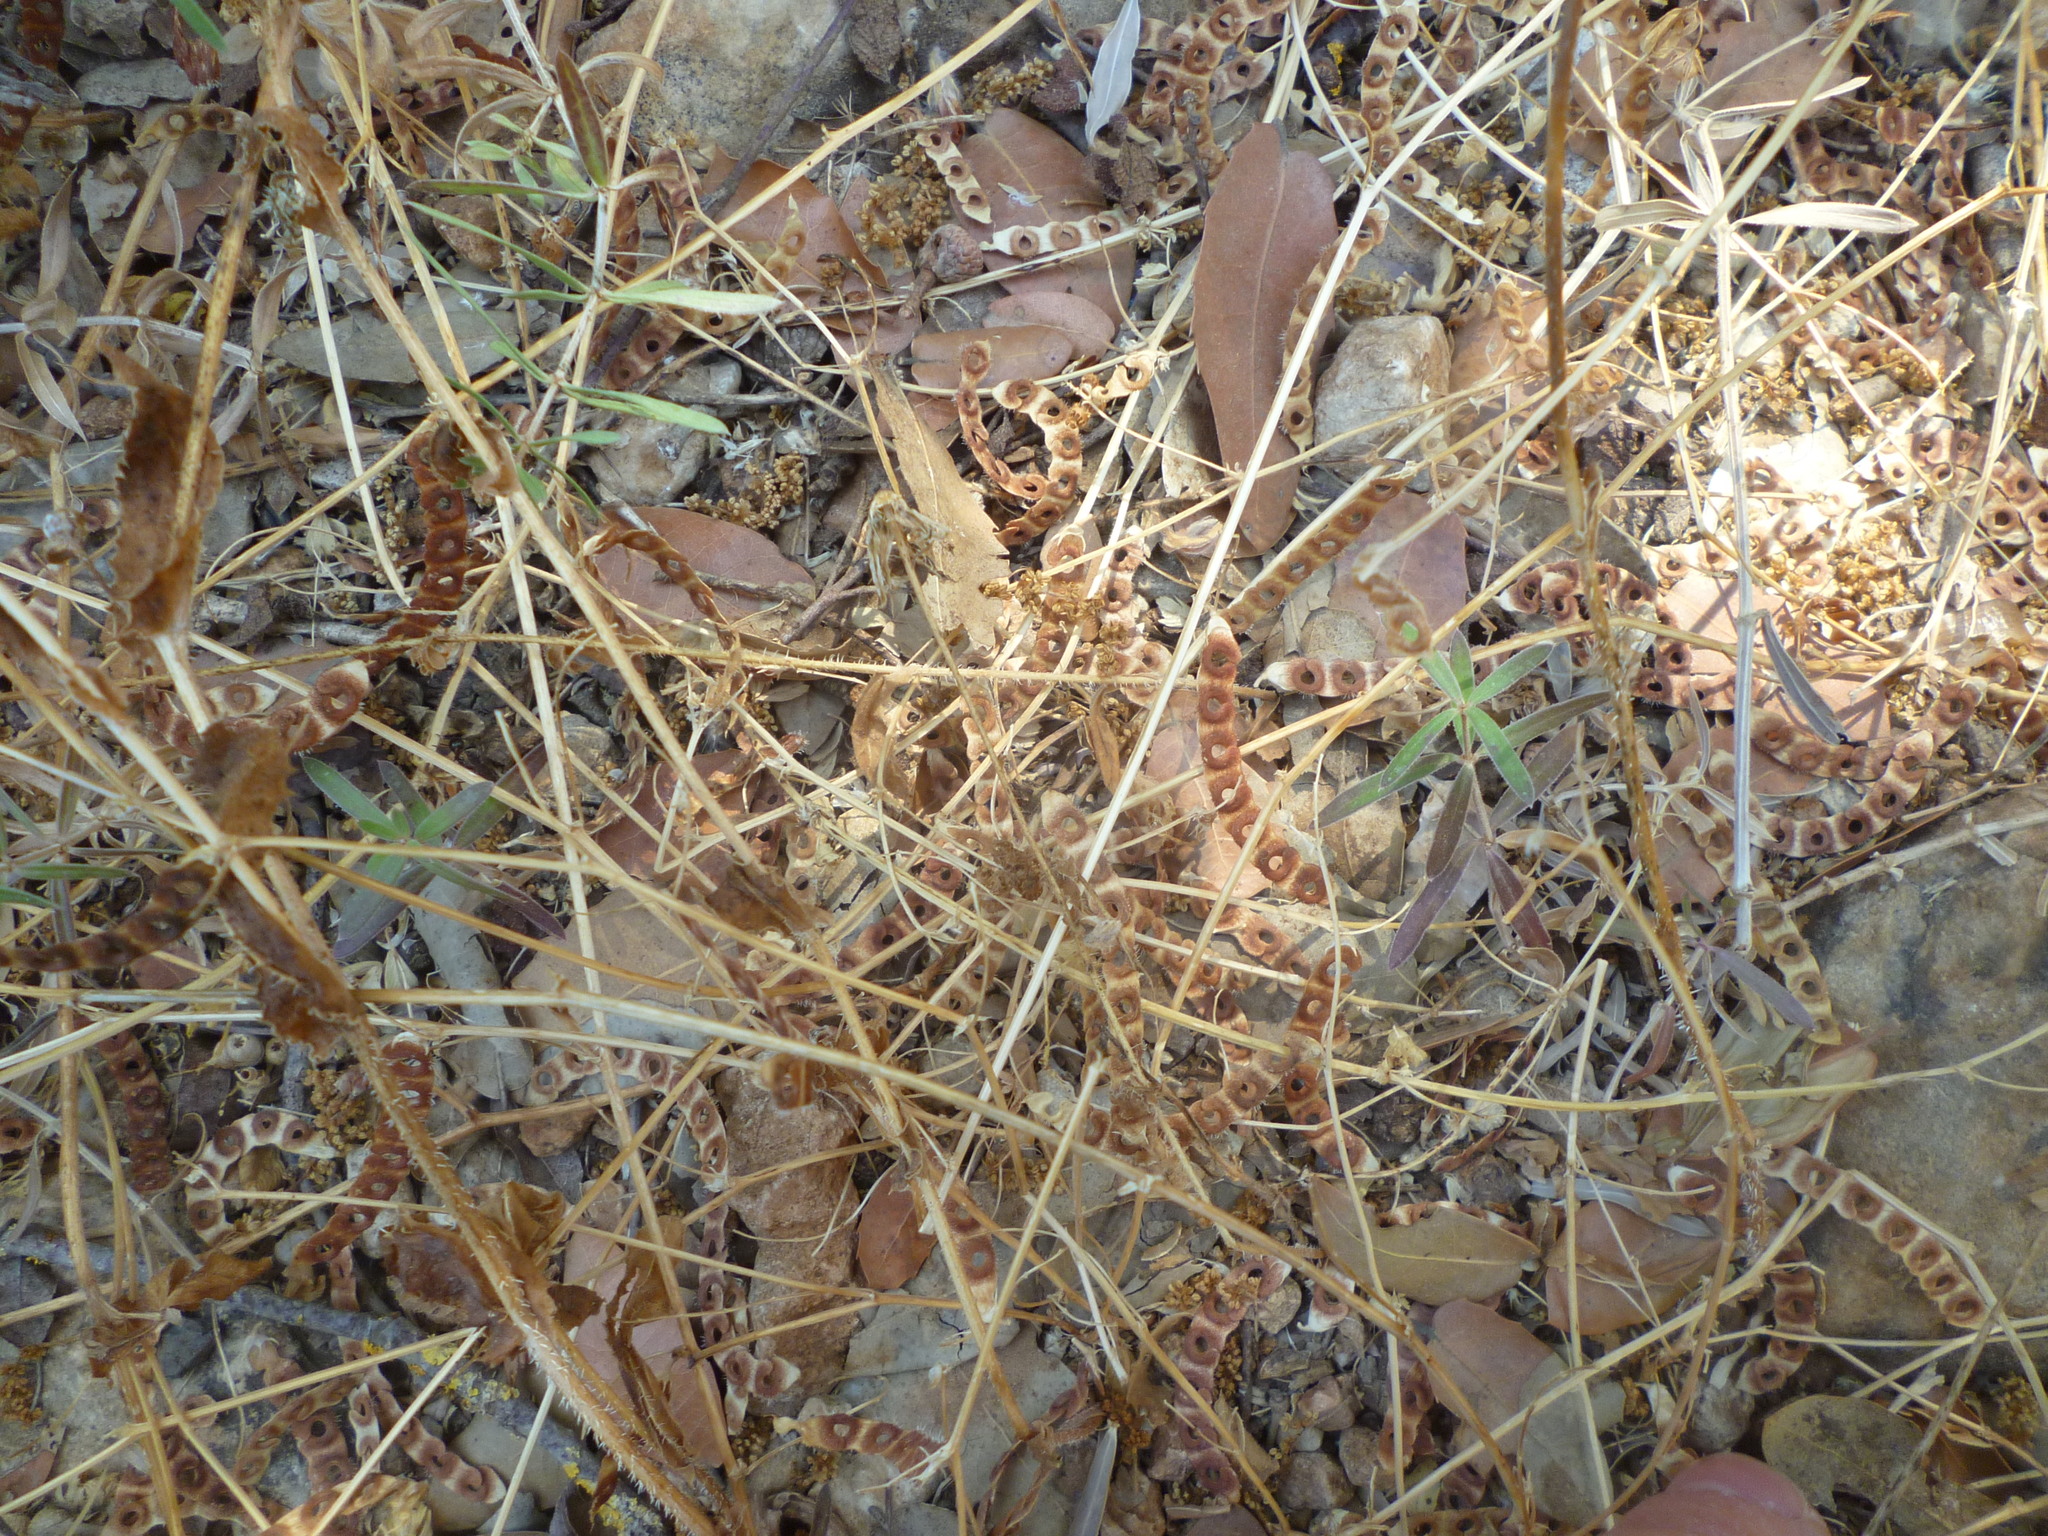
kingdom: Plantae
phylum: Tracheophyta
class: Magnoliopsida
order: Fabales
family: Fabaceae
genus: Hippocrepis
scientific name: Hippocrepis unisiliquosa
